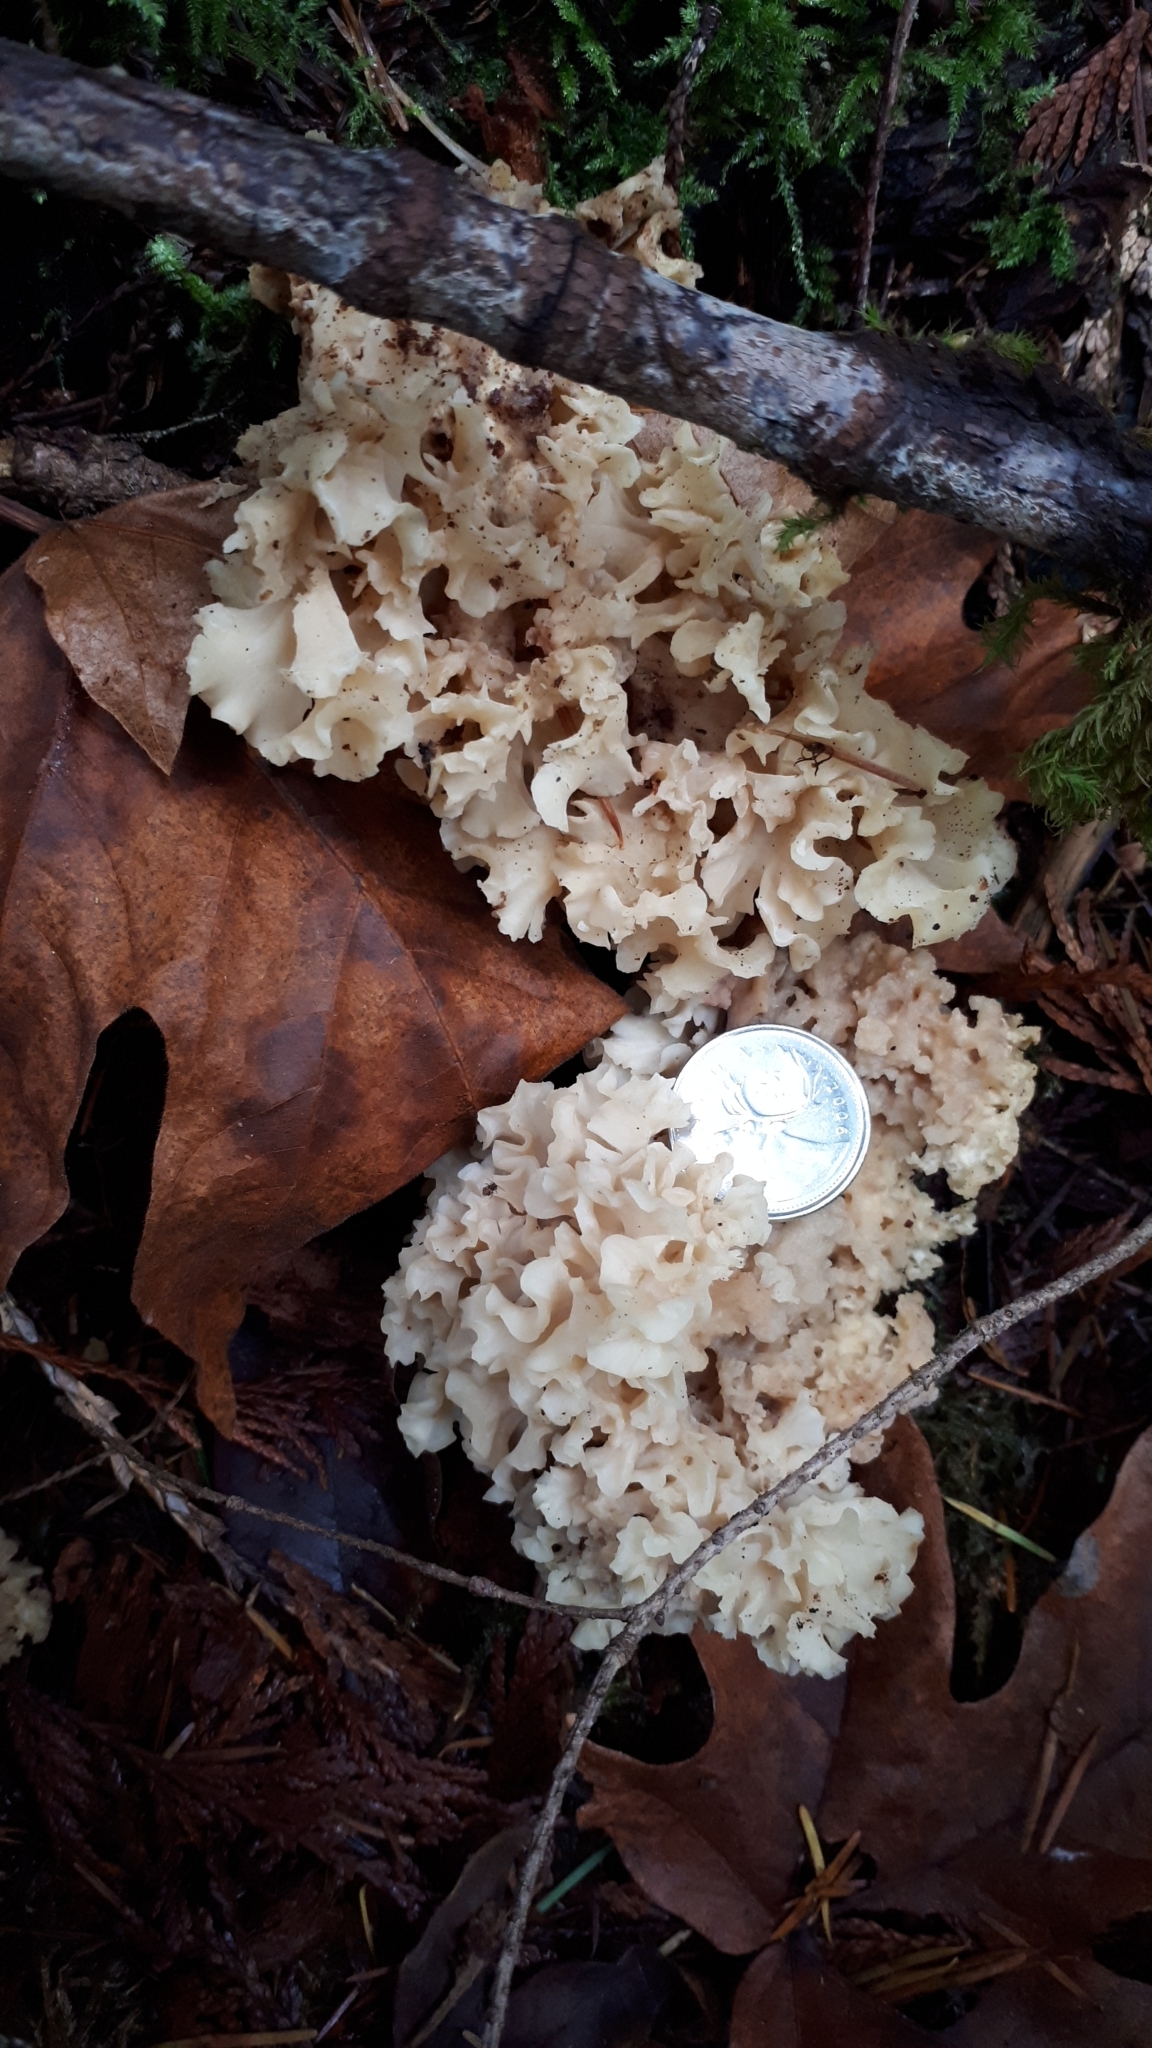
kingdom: Fungi
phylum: Basidiomycota
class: Agaricomycetes
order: Polyporales
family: Sparassidaceae
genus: Sparassis
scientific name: Sparassis radicata
